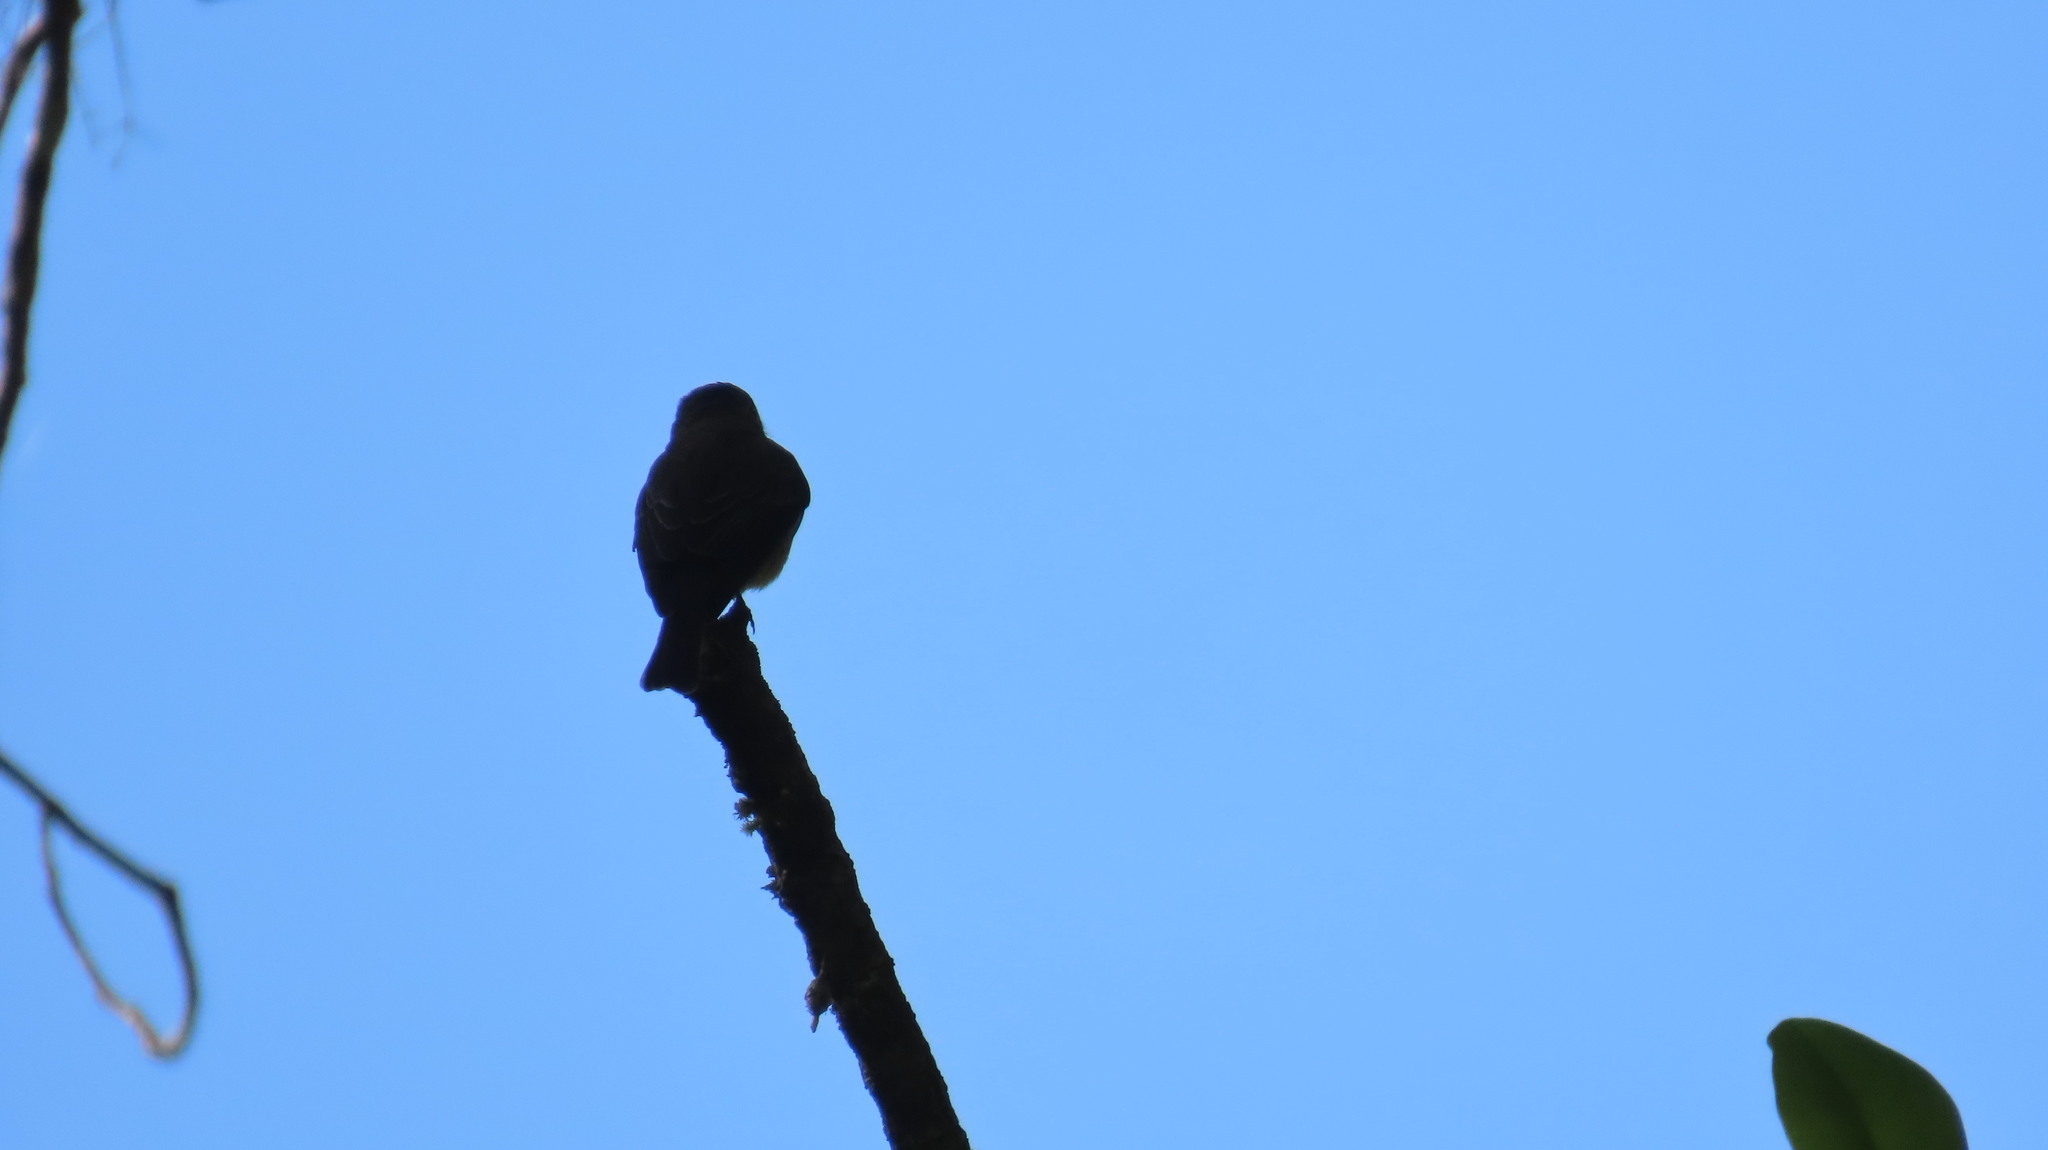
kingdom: Animalia
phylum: Chordata
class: Aves
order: Passeriformes
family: Muscicapidae
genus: Muscicapa
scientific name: Muscicapa latirostris
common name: Asian brown flycatcher
